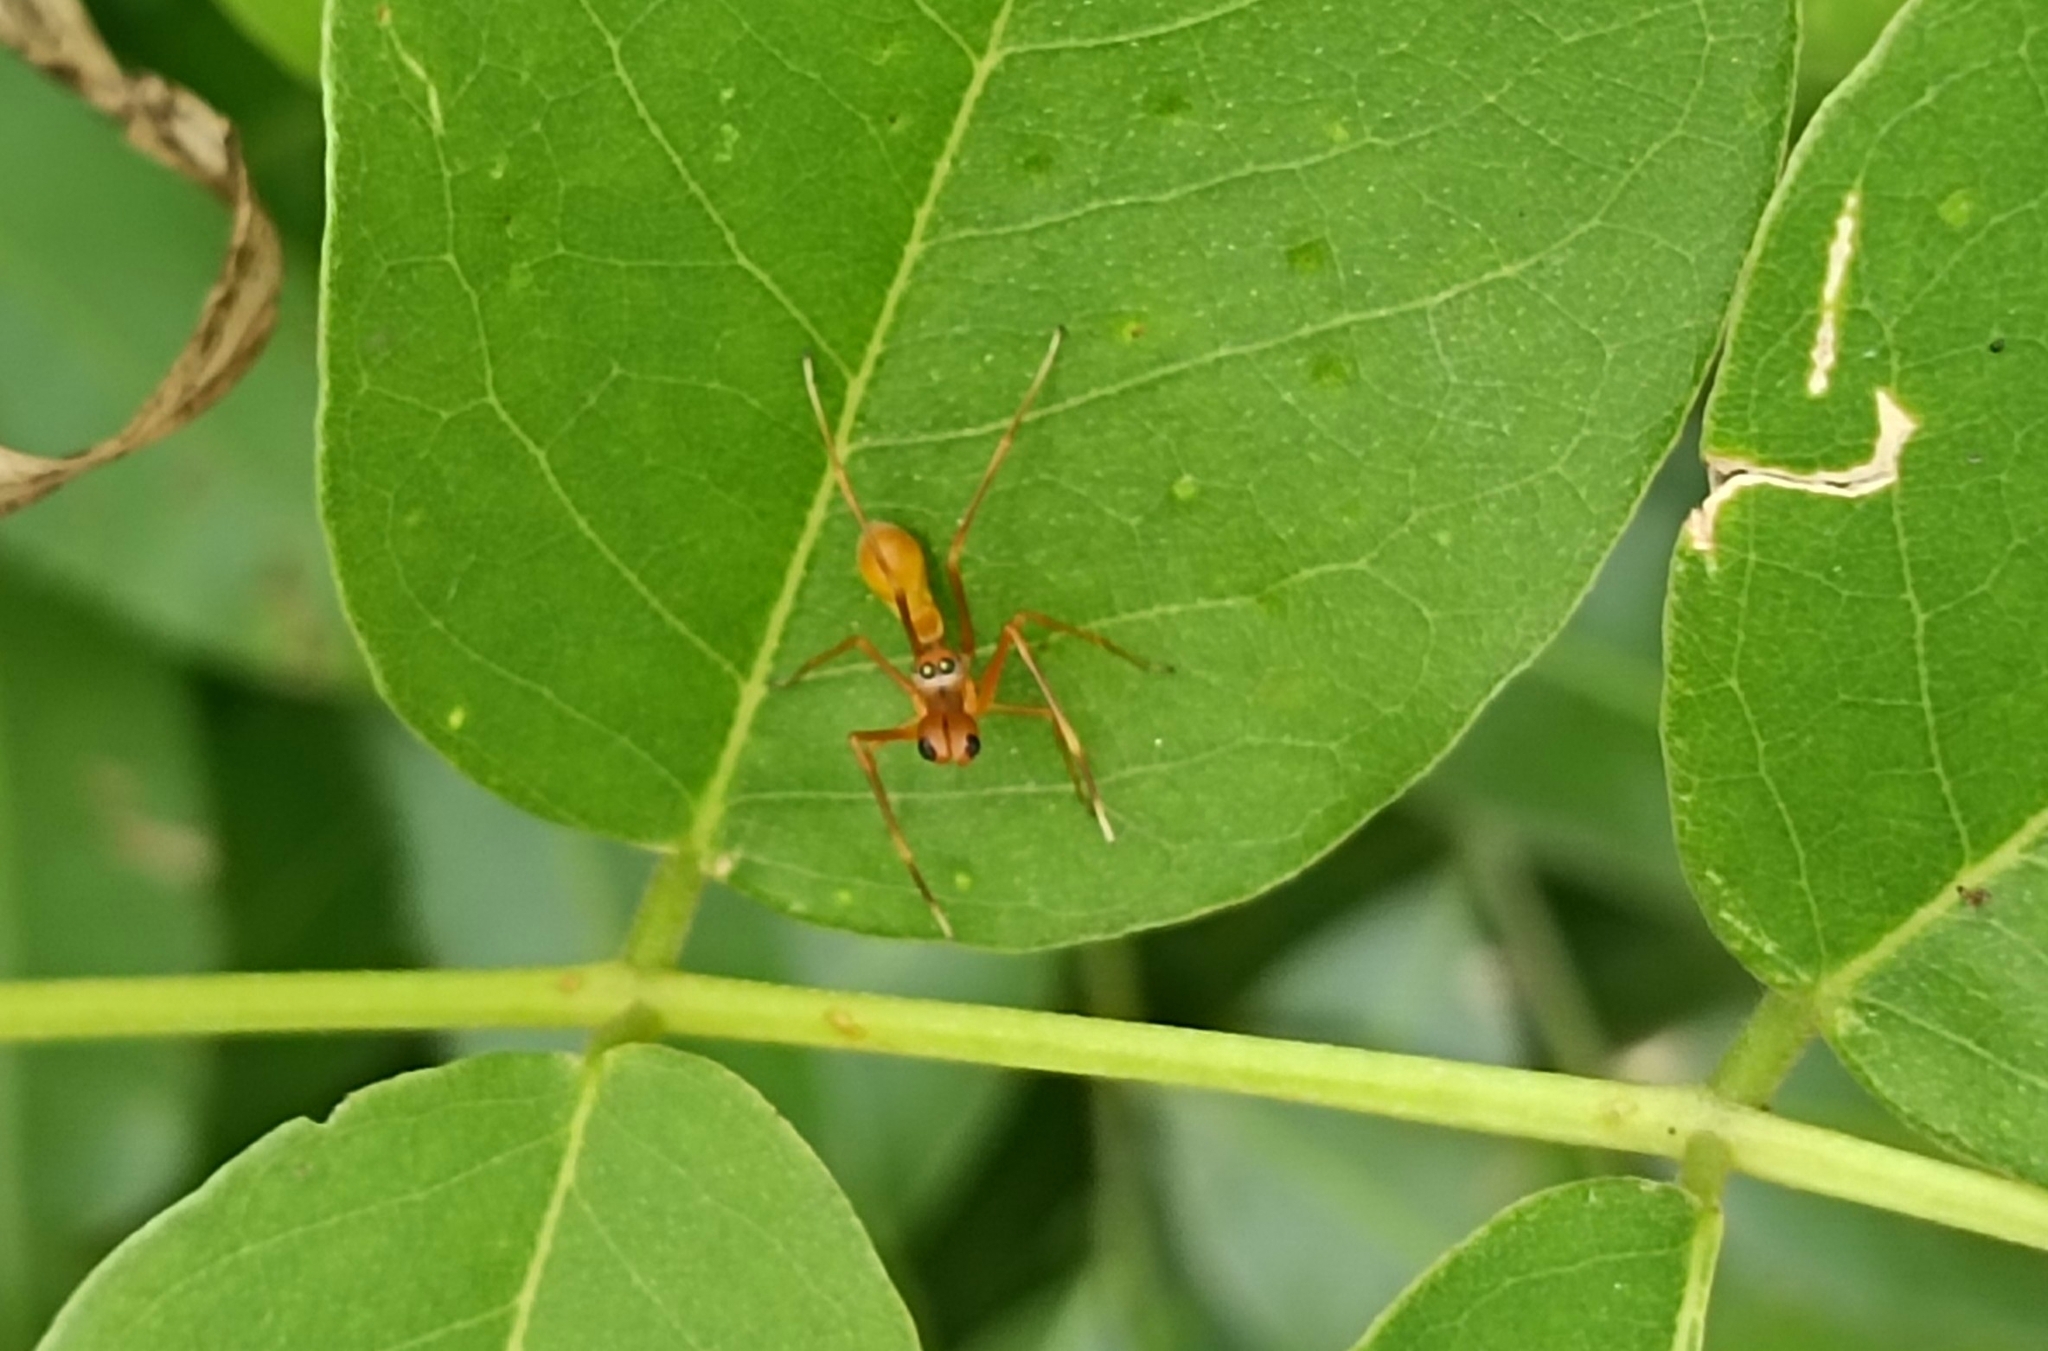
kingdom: Animalia
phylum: Arthropoda
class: Arachnida
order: Araneae
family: Salticidae
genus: Myrmaplata
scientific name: Myrmaplata plataleoides
